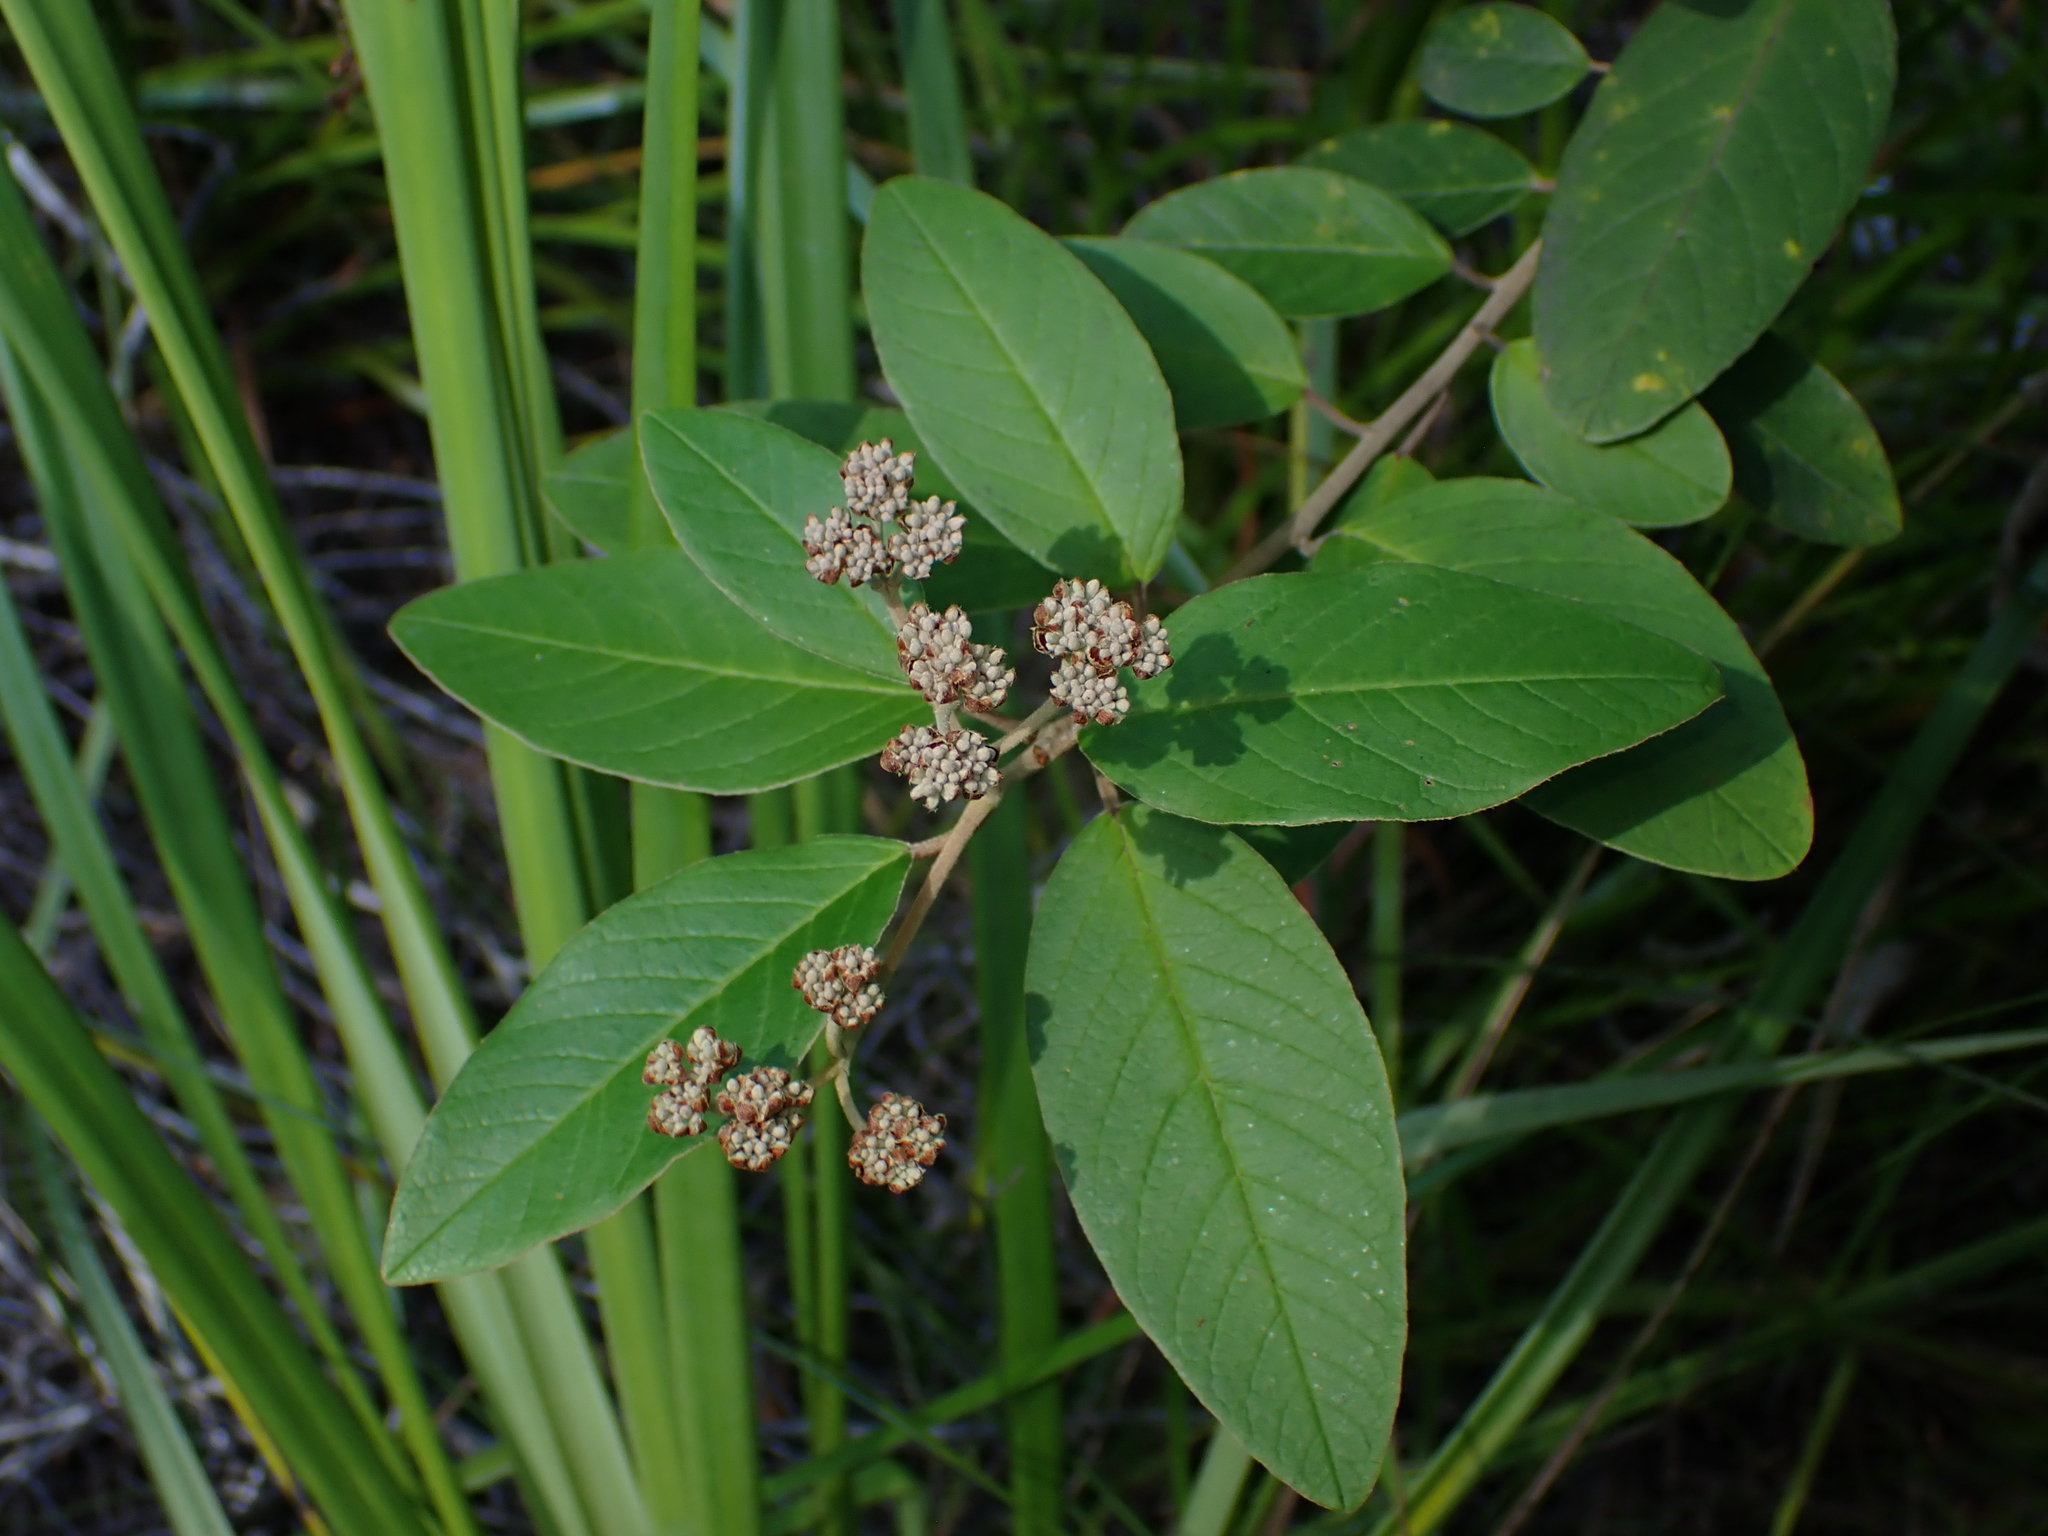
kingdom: Plantae
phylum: Tracheophyta
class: Magnoliopsida
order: Rosales
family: Rhamnaceae
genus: Pomaderris
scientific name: Pomaderris kumeraho
